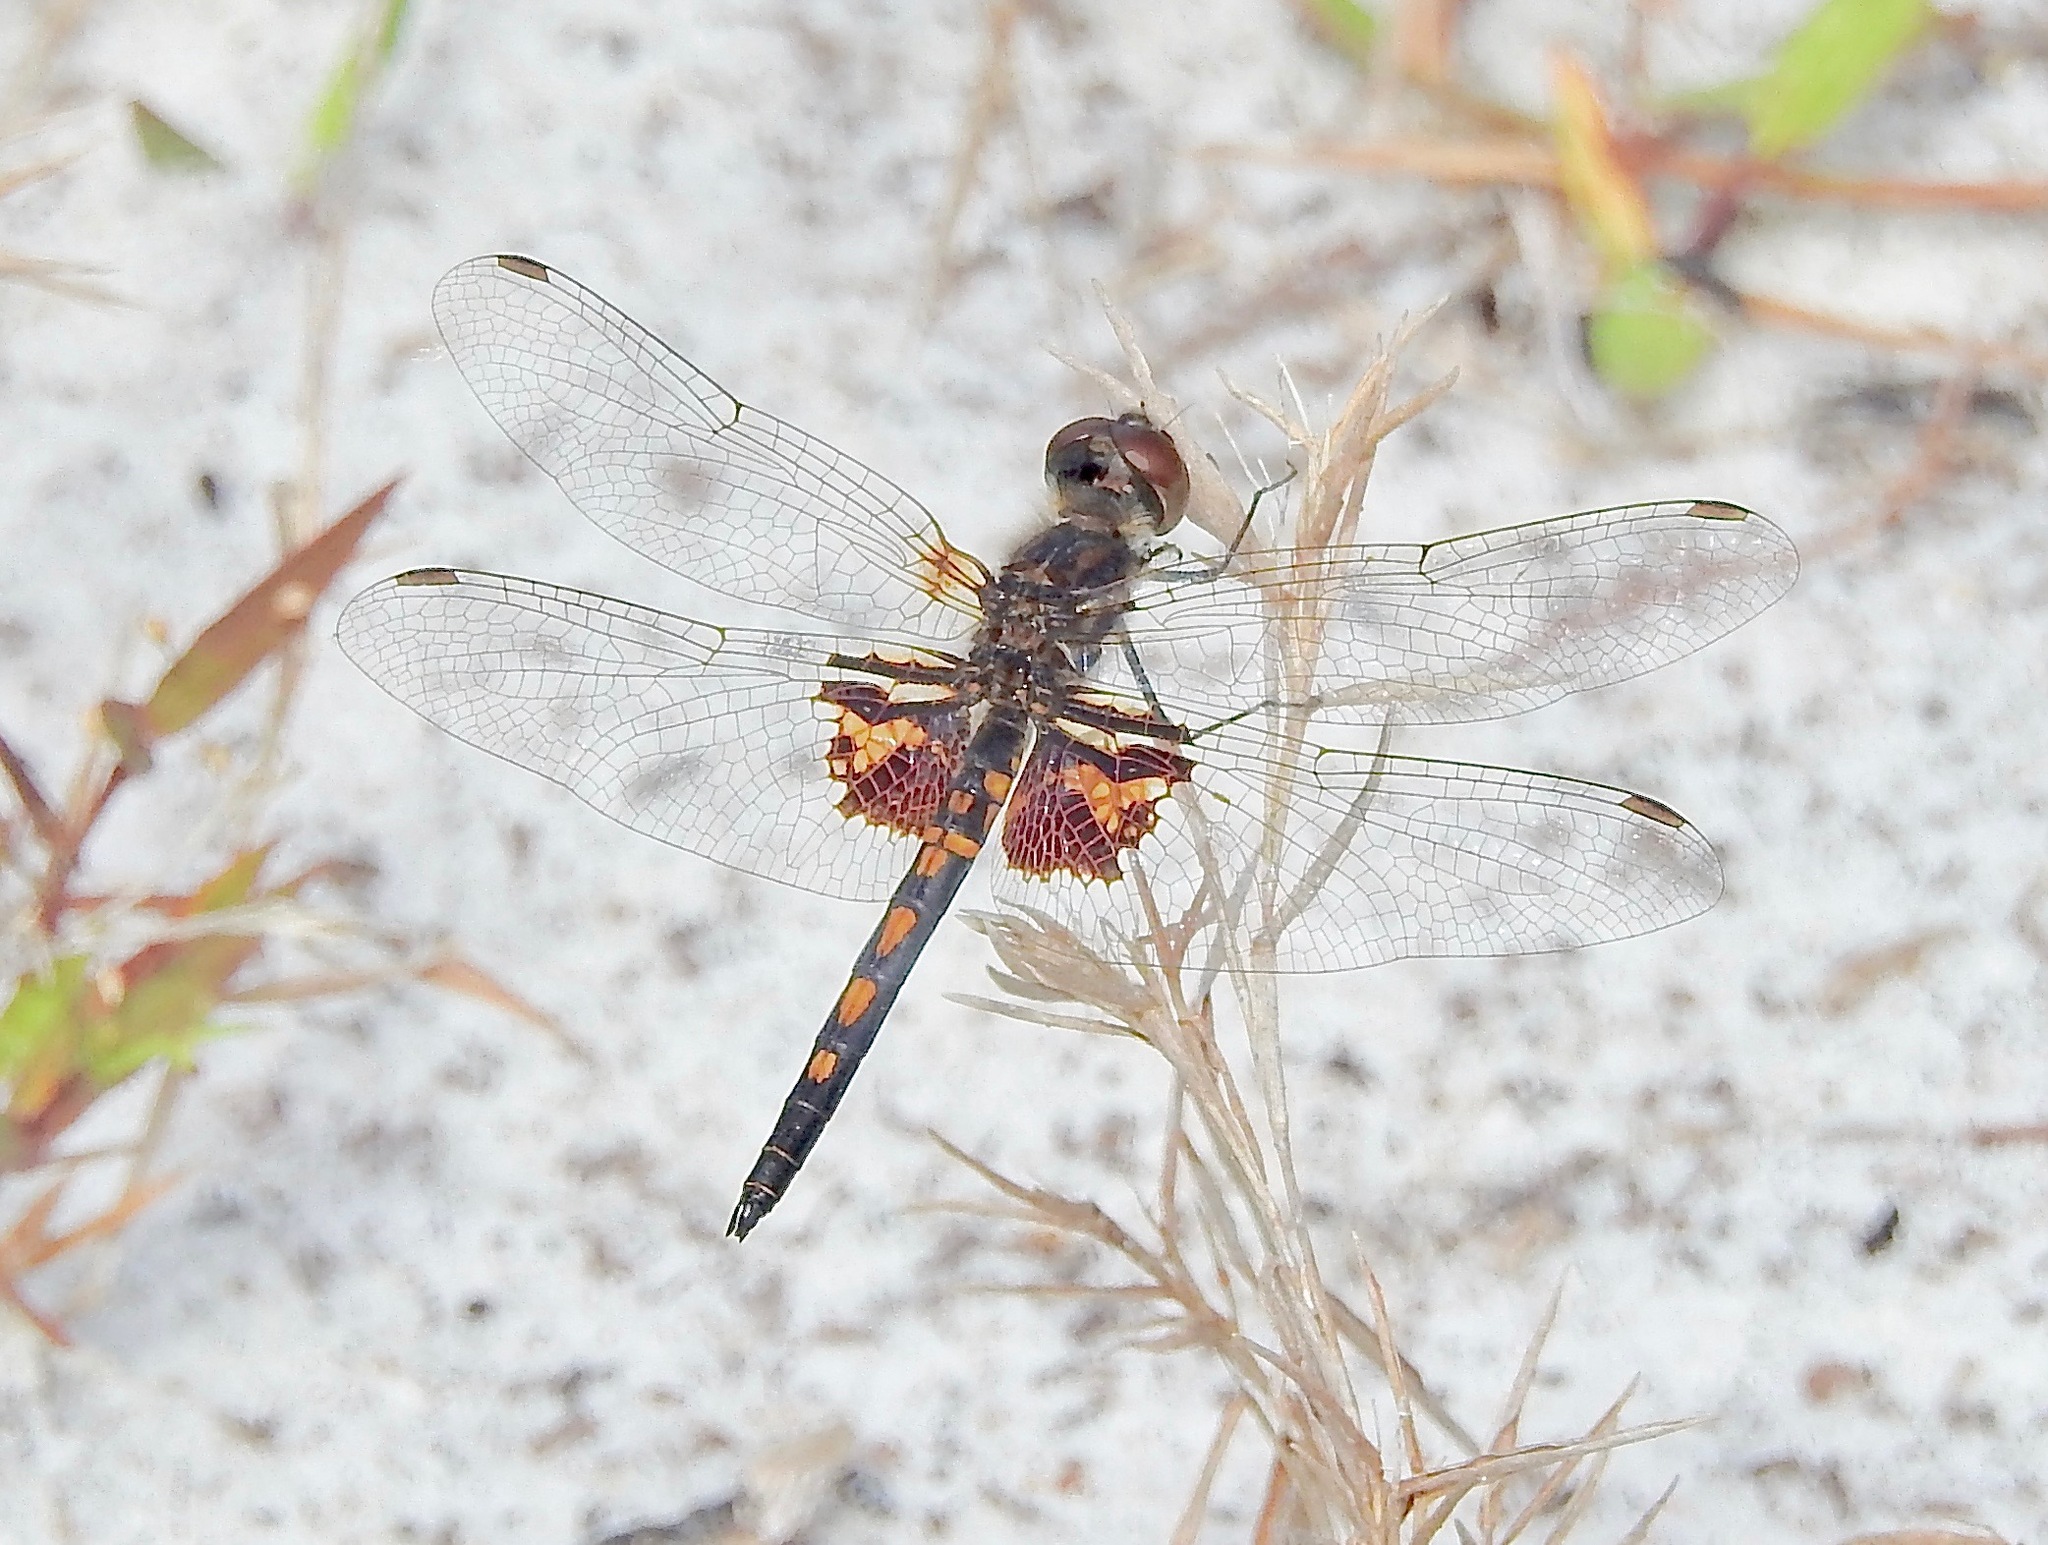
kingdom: Animalia
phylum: Arthropoda
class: Insecta
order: Odonata
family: Libellulidae
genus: Celithemis
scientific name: Celithemis ornata
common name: Ornate pennant
